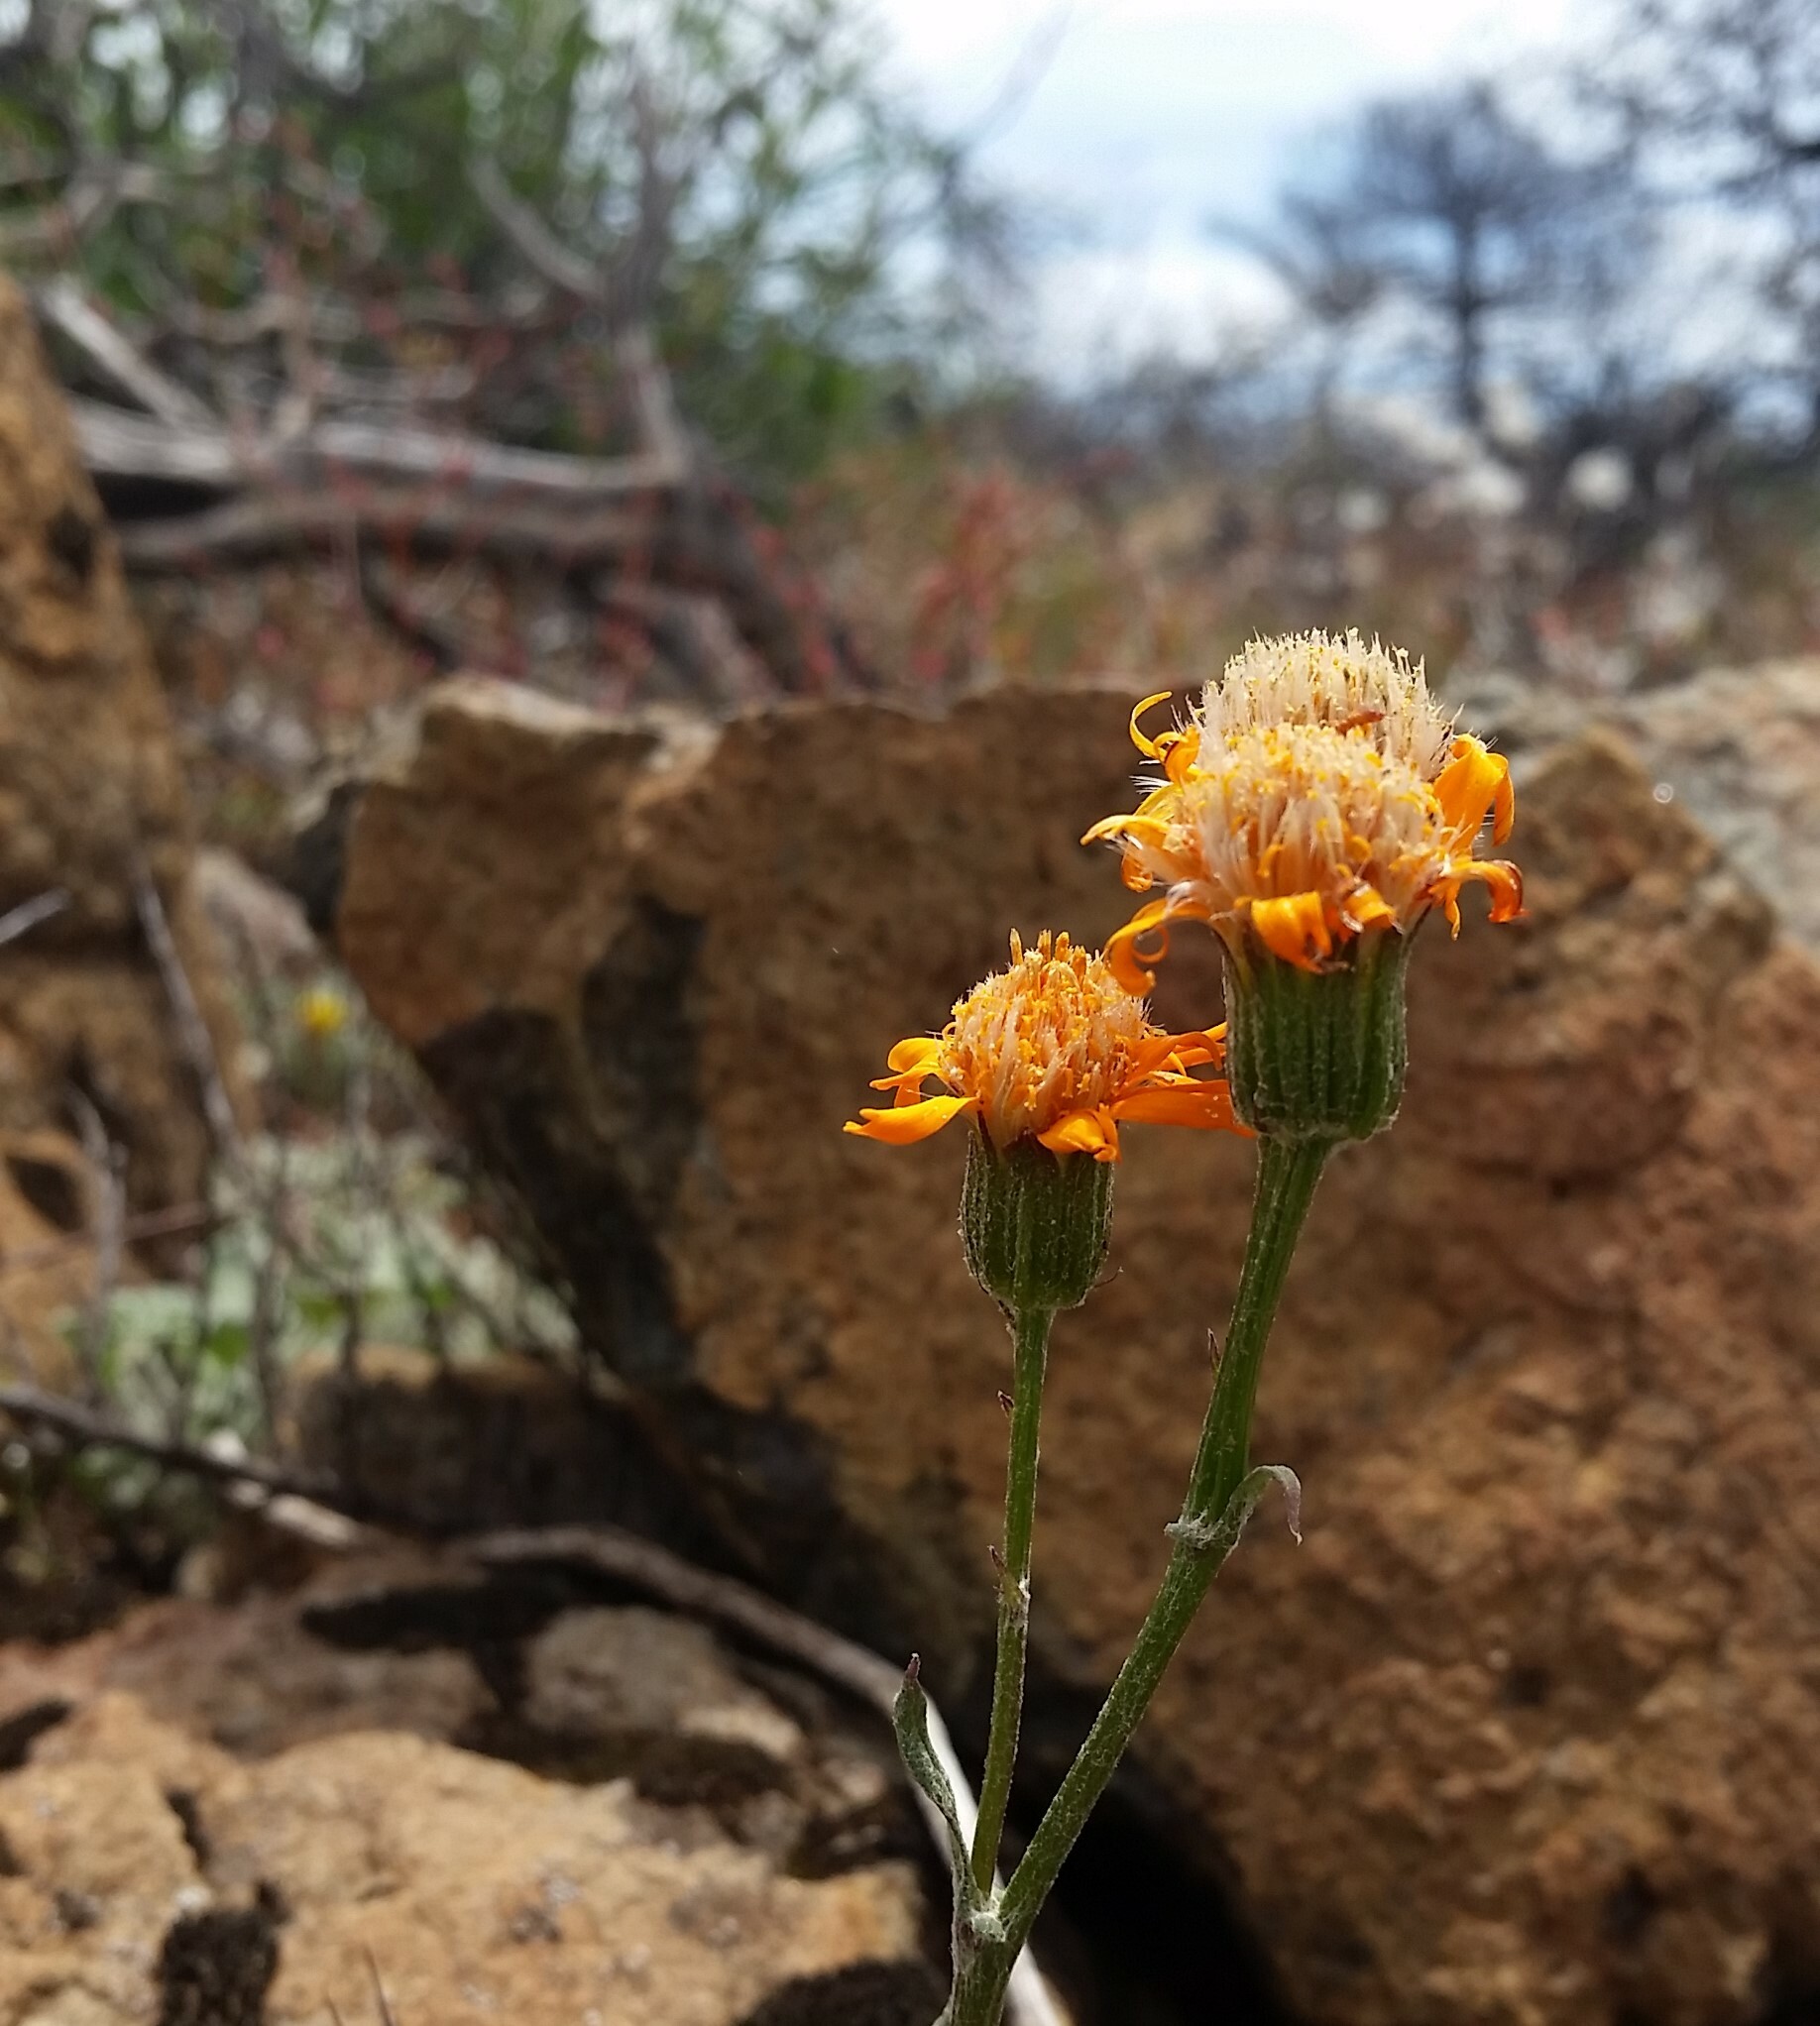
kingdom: Plantae
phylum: Tracheophyta
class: Magnoliopsida
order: Asterales
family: Asteraceae
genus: Packera
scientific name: Packera greenei
